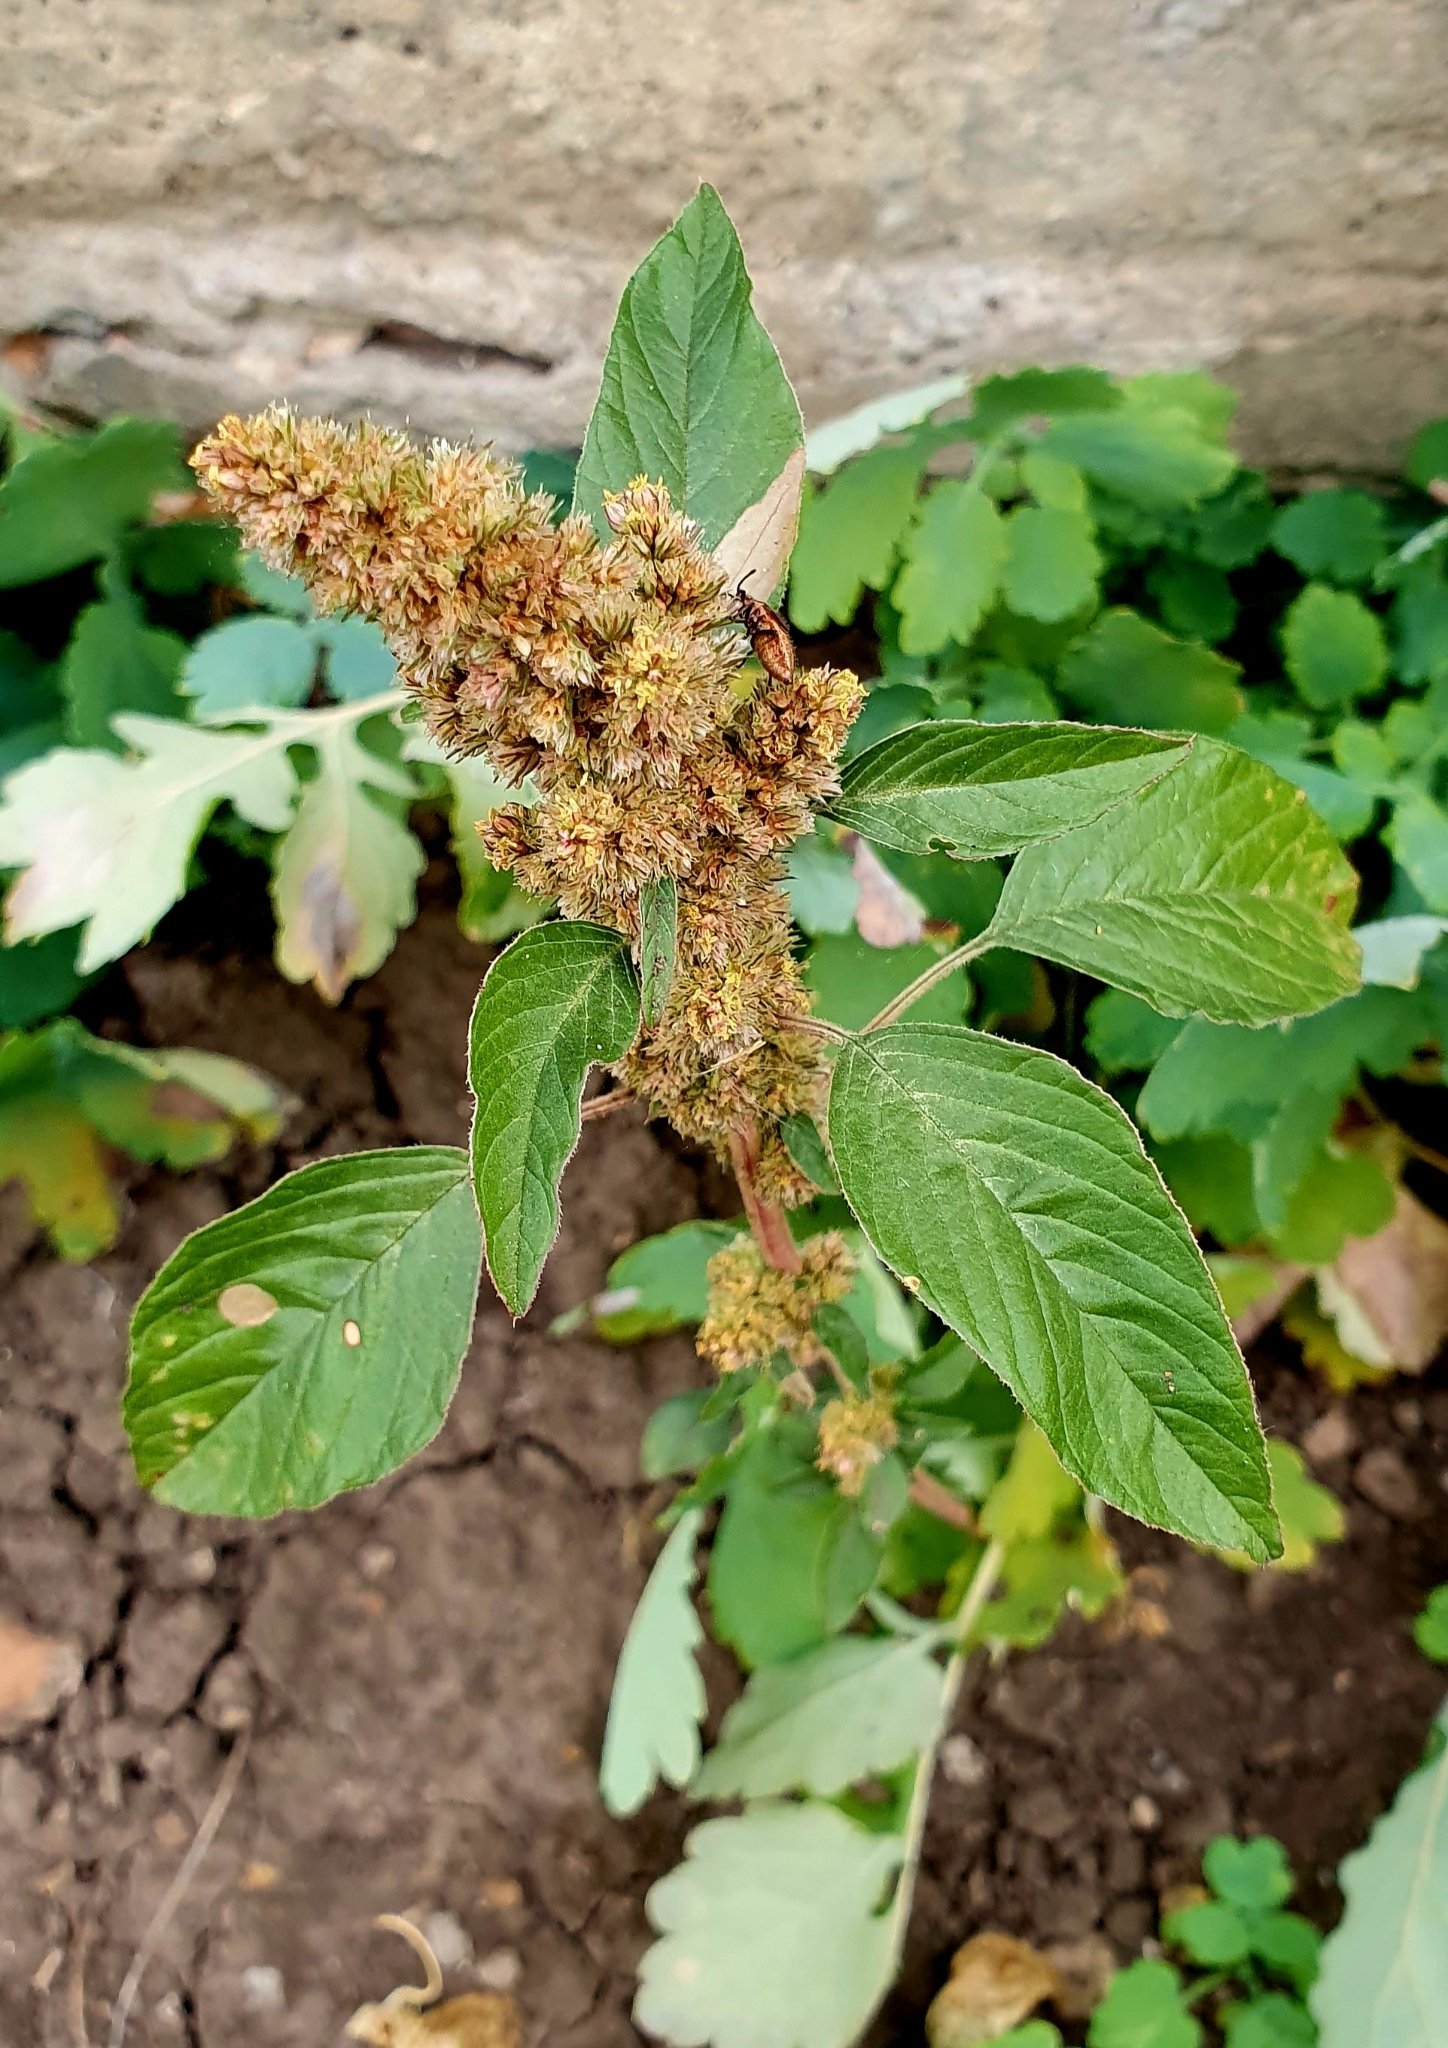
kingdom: Plantae
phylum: Tracheophyta
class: Magnoliopsida
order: Caryophyllales
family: Amaranthaceae
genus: Amaranthus
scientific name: Amaranthus retroflexus
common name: Redroot amaranth
